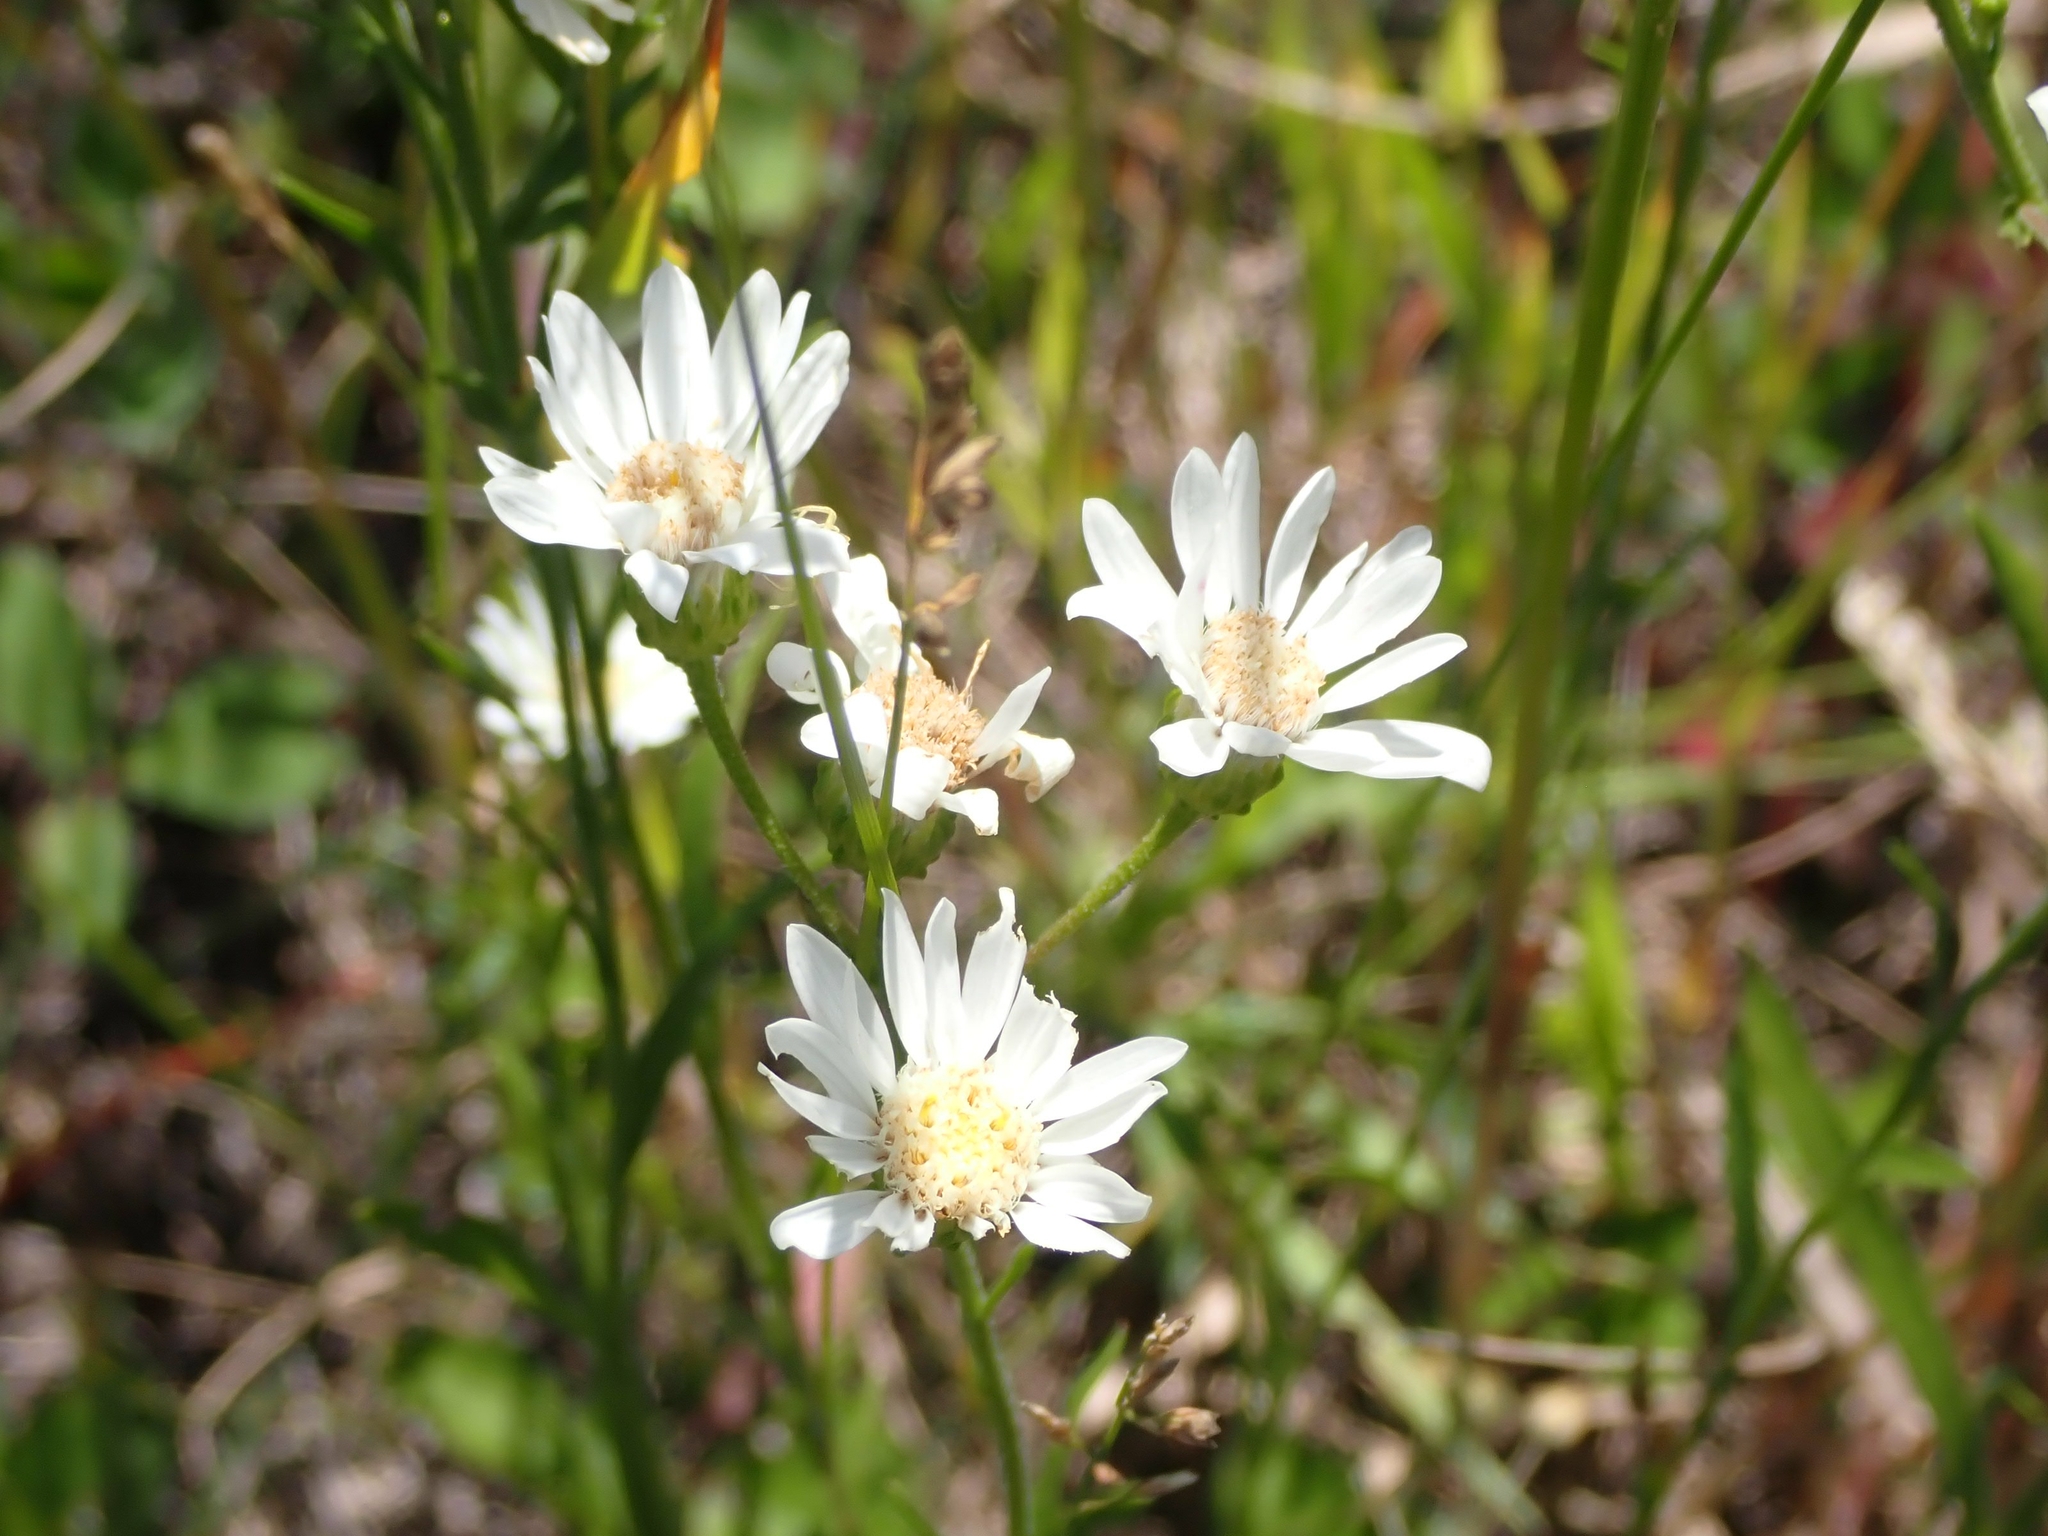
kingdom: Plantae
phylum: Tracheophyta
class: Magnoliopsida
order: Asterales
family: Asteraceae
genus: Solidago
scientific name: Solidago ptarmicoides
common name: White flat-top goldenrod
